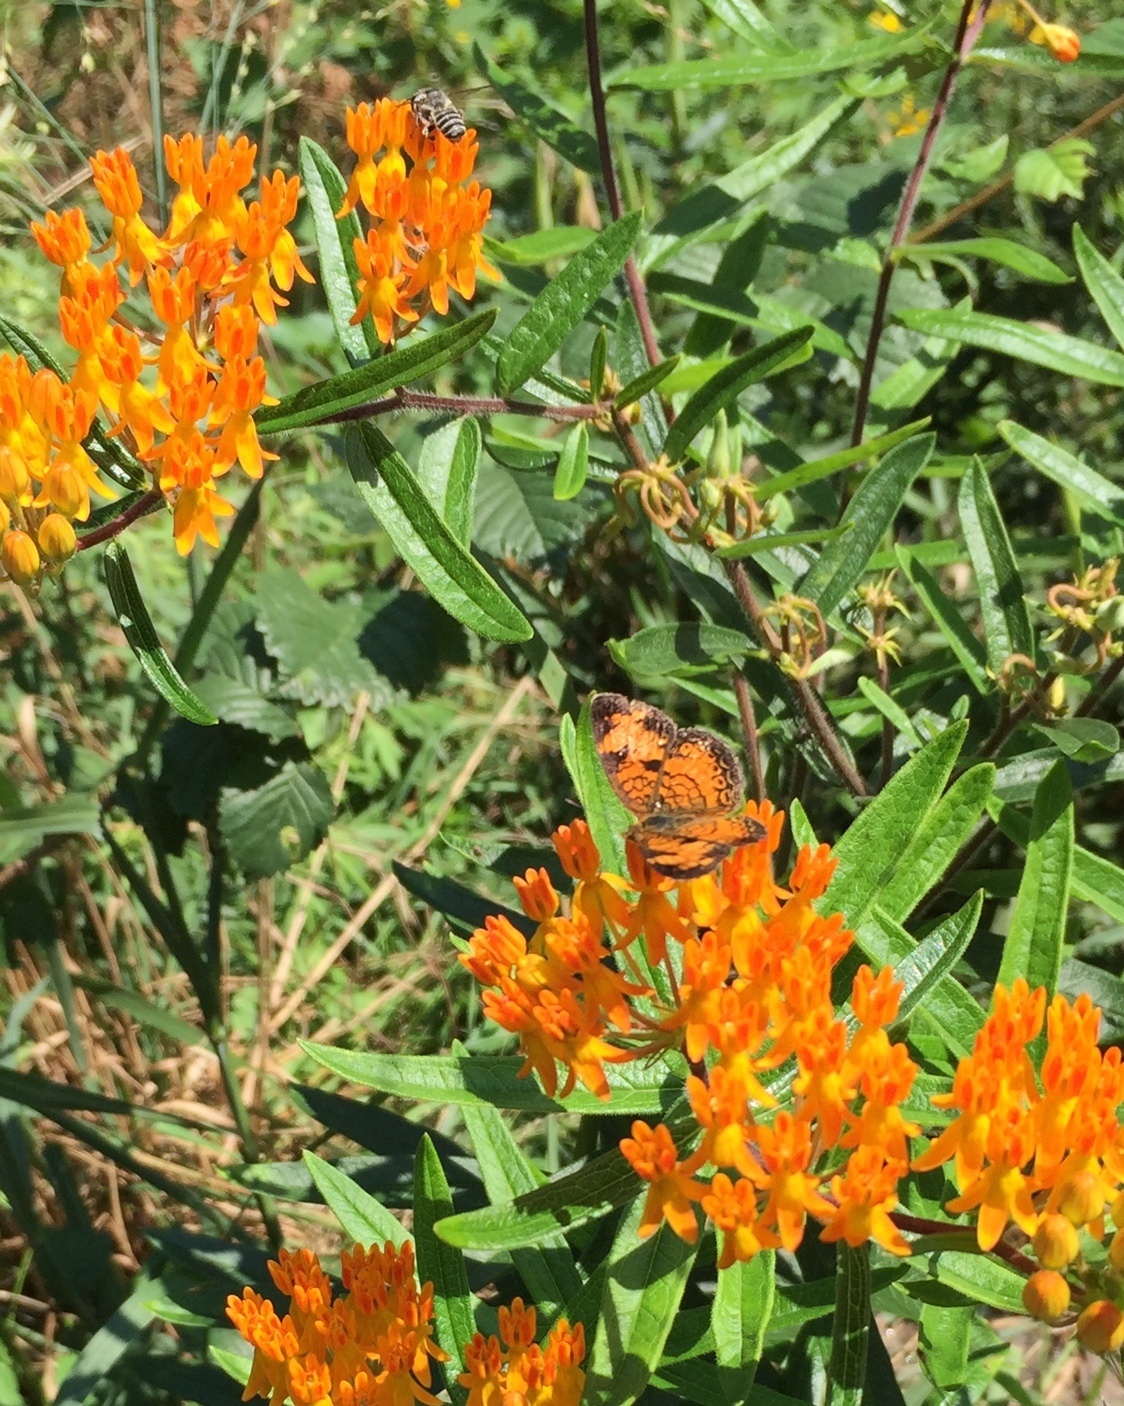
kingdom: Animalia
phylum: Arthropoda
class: Insecta
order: Lepidoptera
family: Nymphalidae
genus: Phyciodes
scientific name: Phyciodes tharos
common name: Pearl crescent
